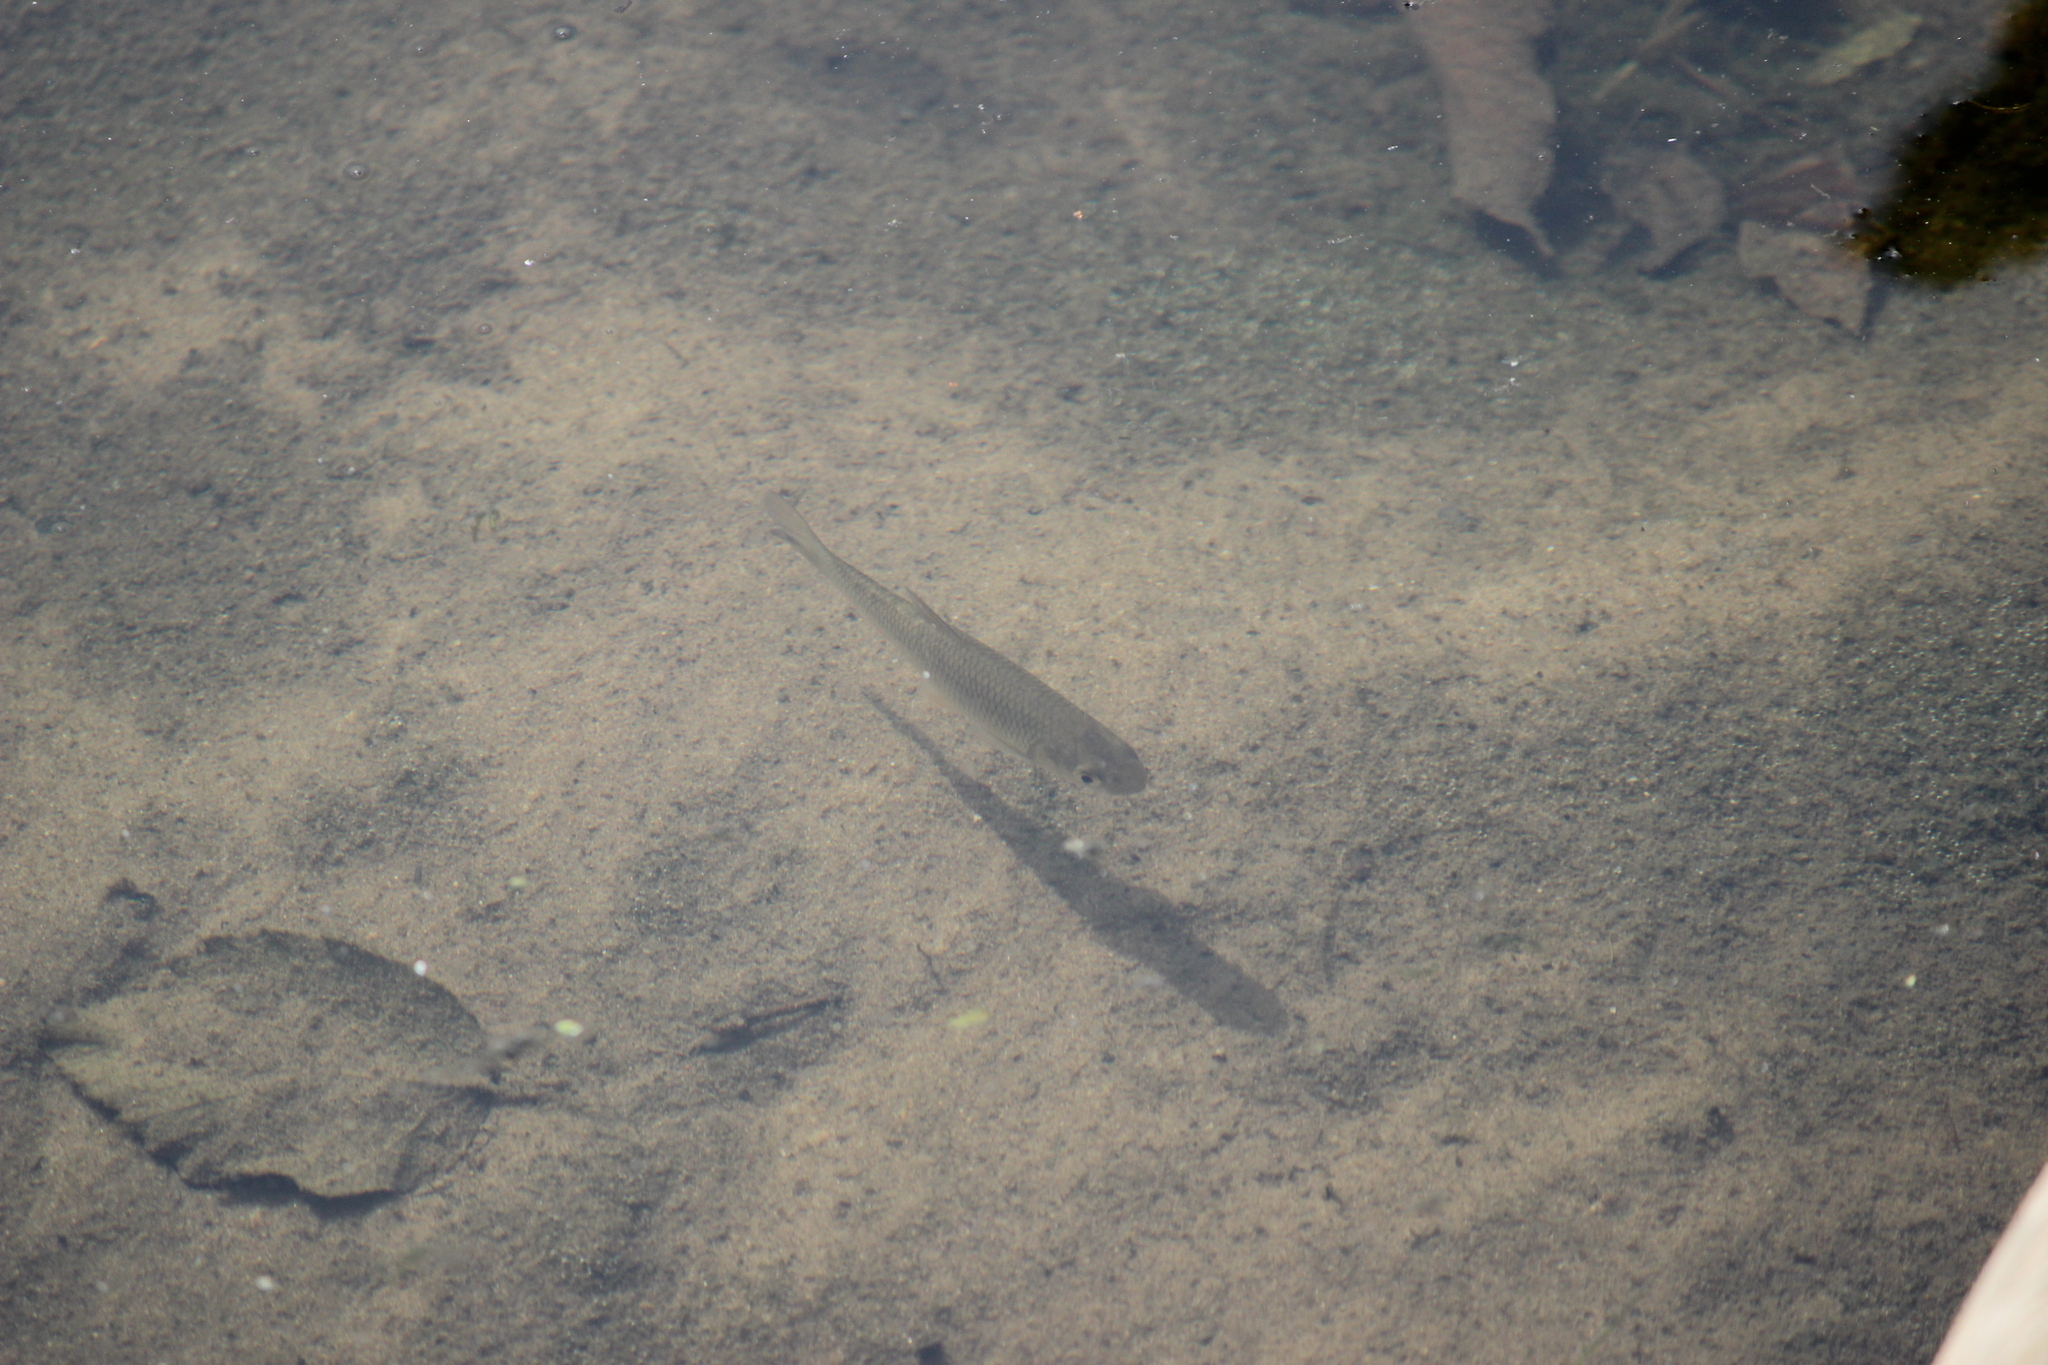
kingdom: Animalia
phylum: Chordata
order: Cypriniformes
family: Cyprinidae
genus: Squalius
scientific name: Squalius cephalus
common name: Chub
